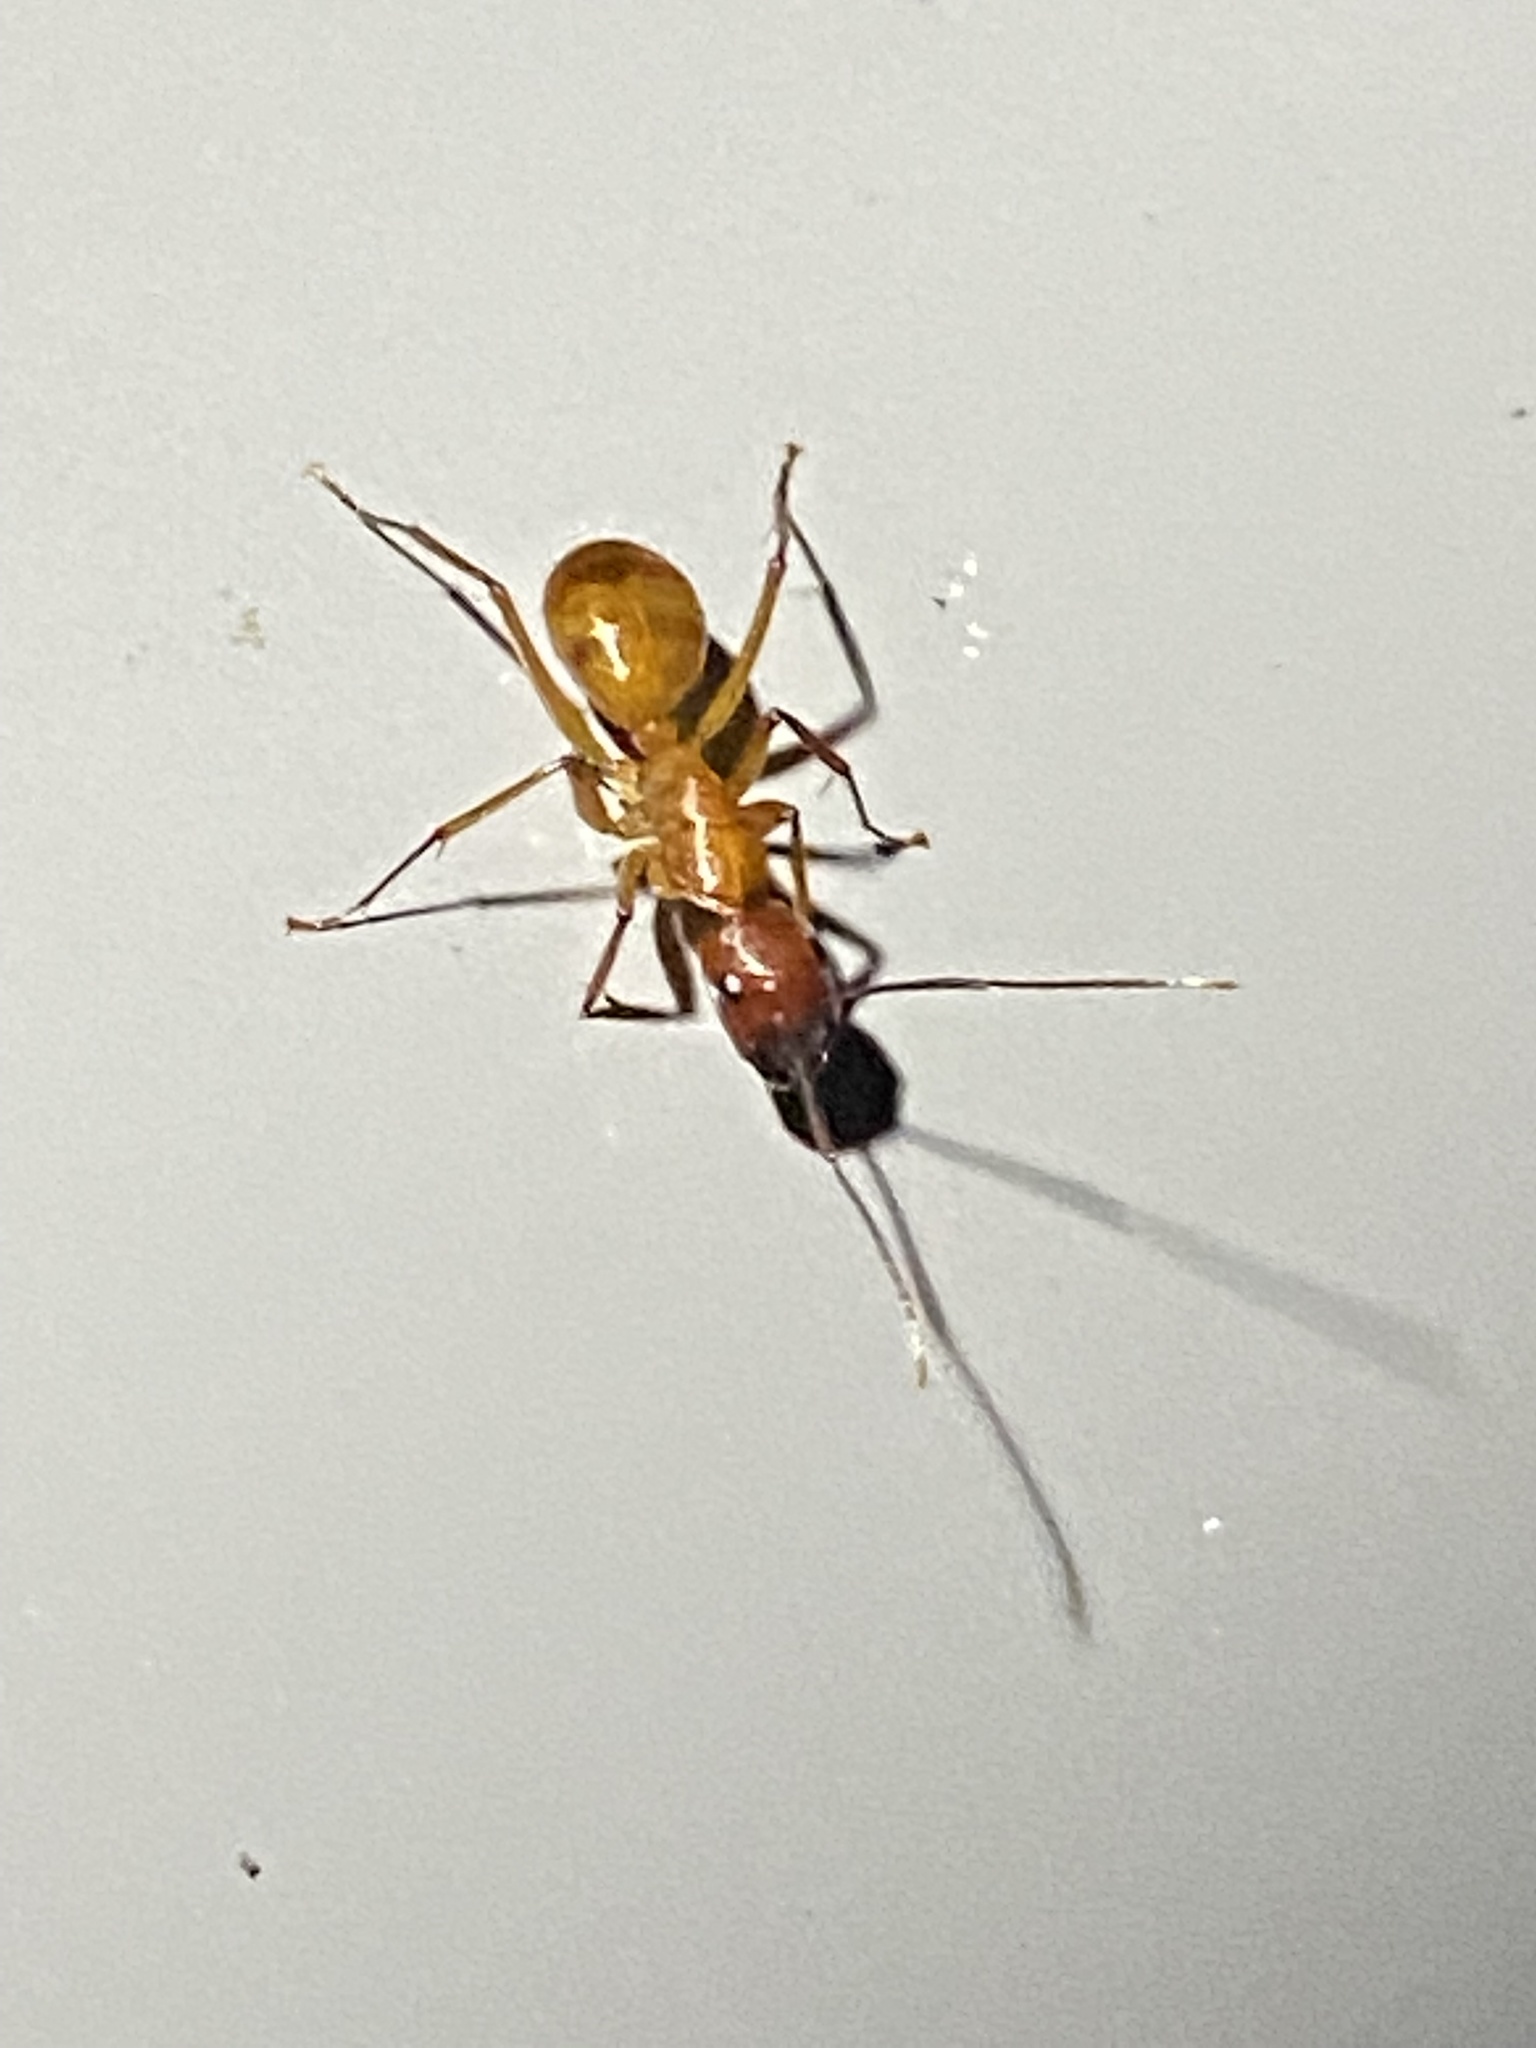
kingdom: Animalia
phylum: Arthropoda
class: Insecta
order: Hymenoptera
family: Formicidae
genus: Camponotus
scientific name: Camponotus castaneus
